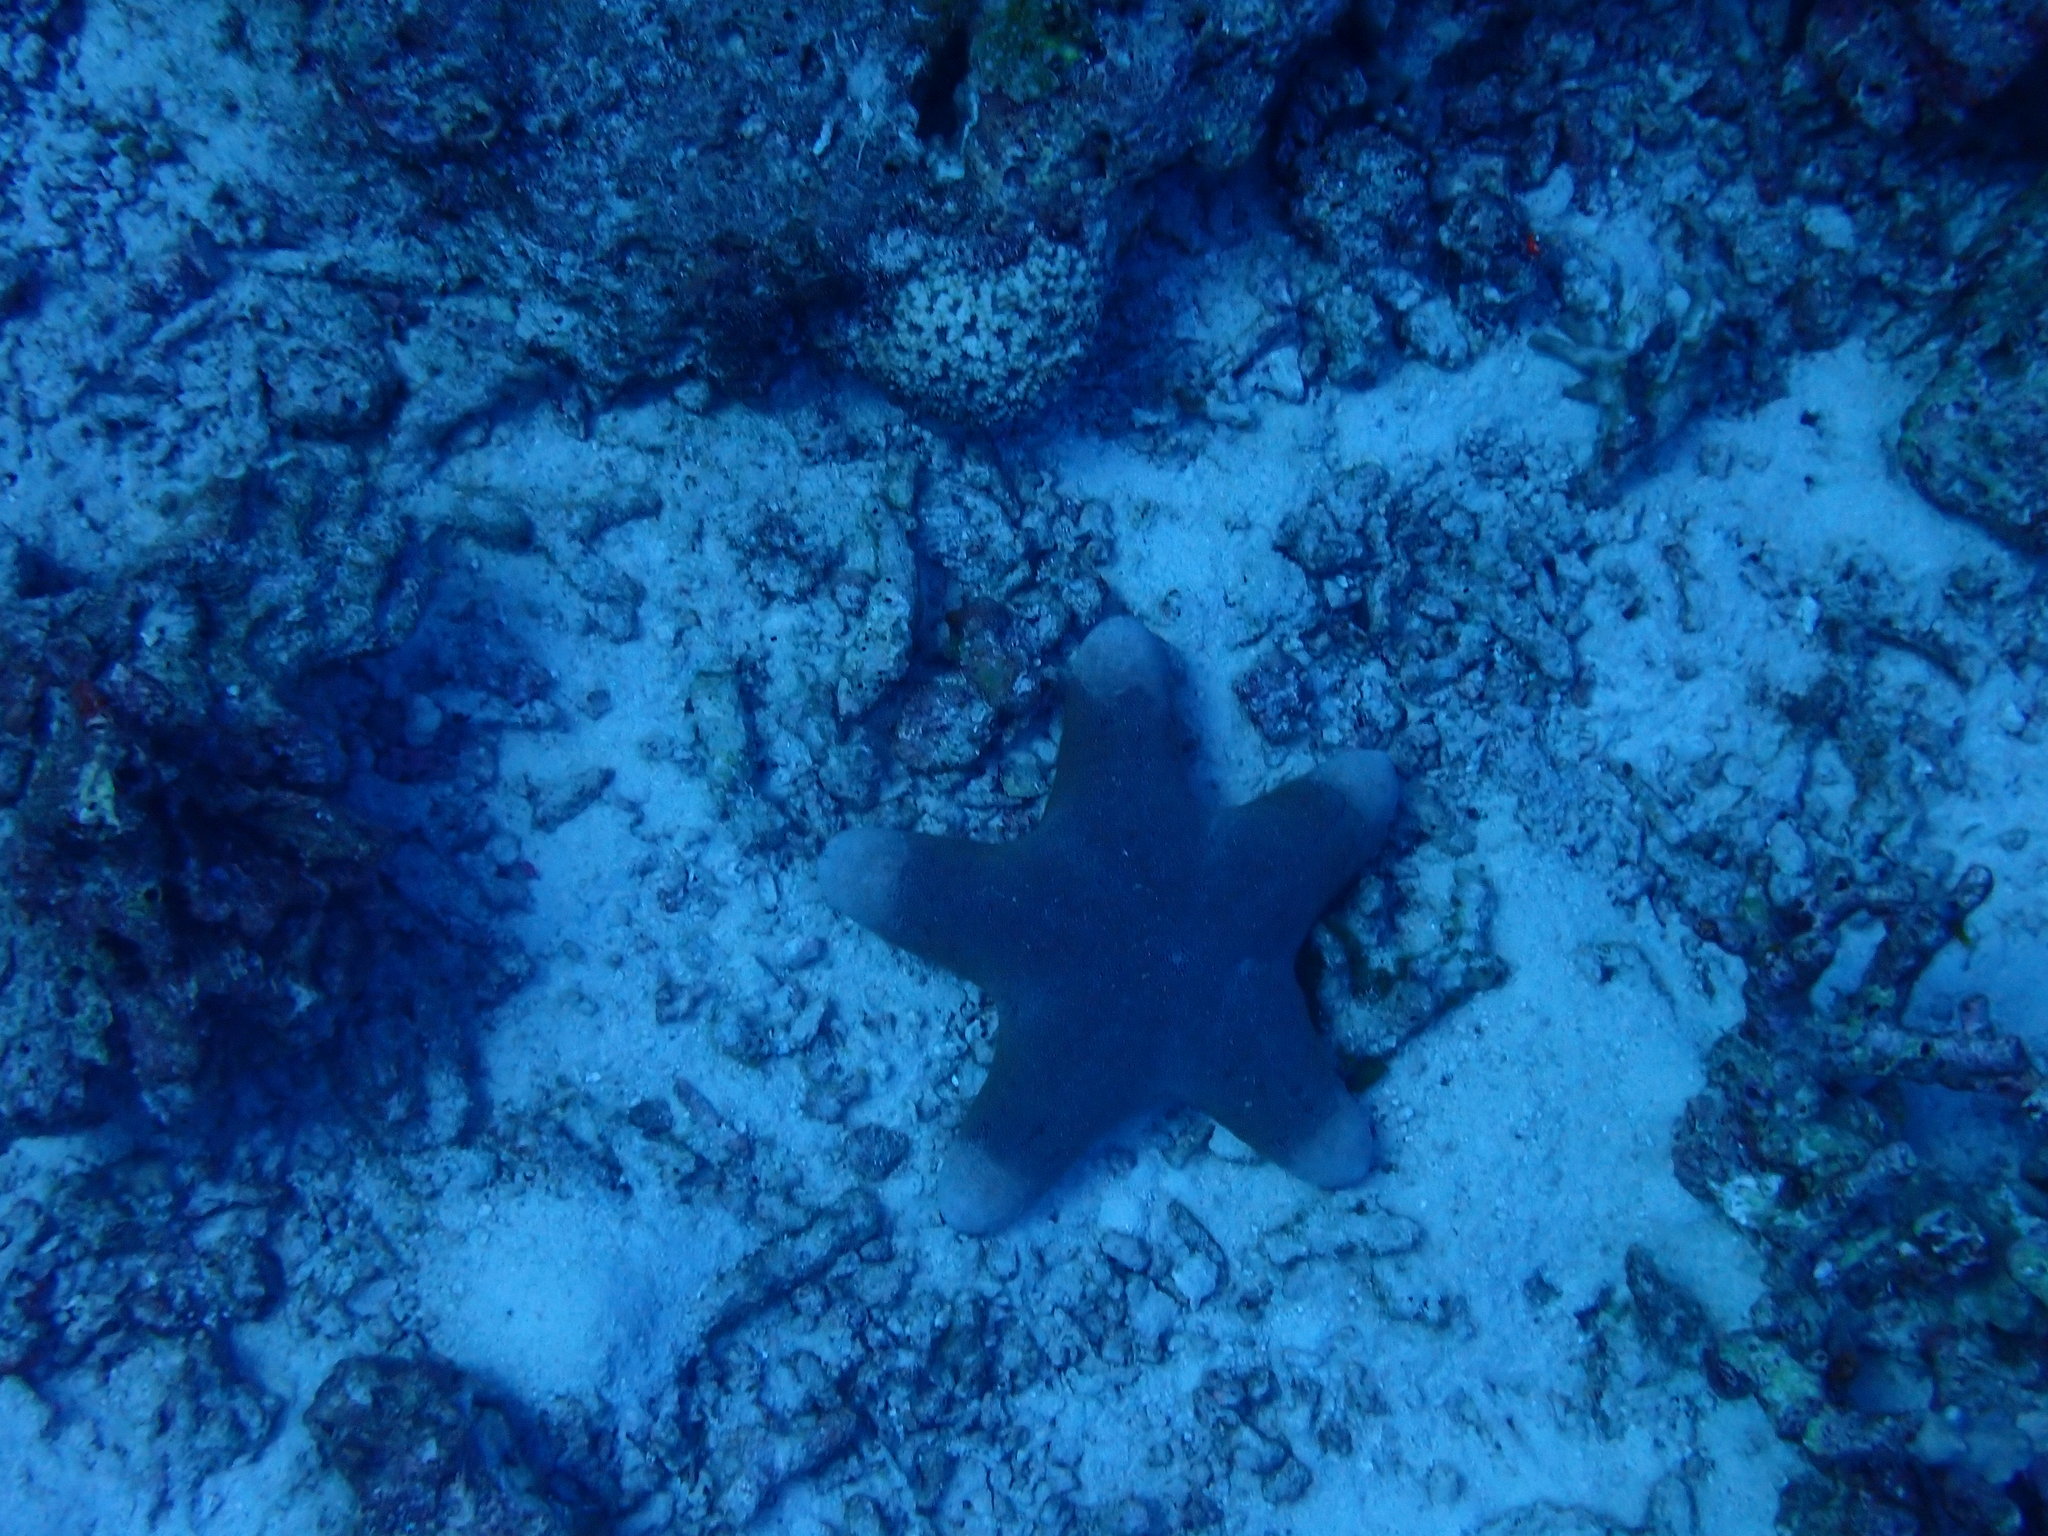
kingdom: Animalia
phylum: Echinodermata
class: Asteroidea
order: Valvatida
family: Oreasteridae
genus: Choriaster
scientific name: Choriaster granulatus
